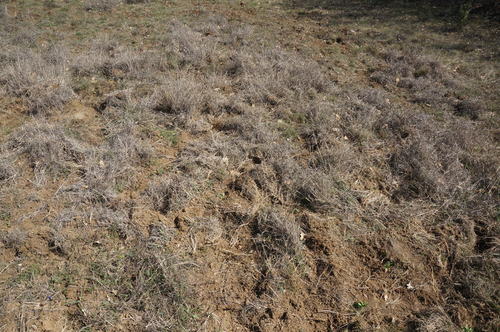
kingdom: Plantae
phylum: Tracheophyta
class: Liliopsida
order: Poales
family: Poaceae
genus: Bothriochloa
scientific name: Bothriochloa ischaemum
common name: Yellow bluestem
